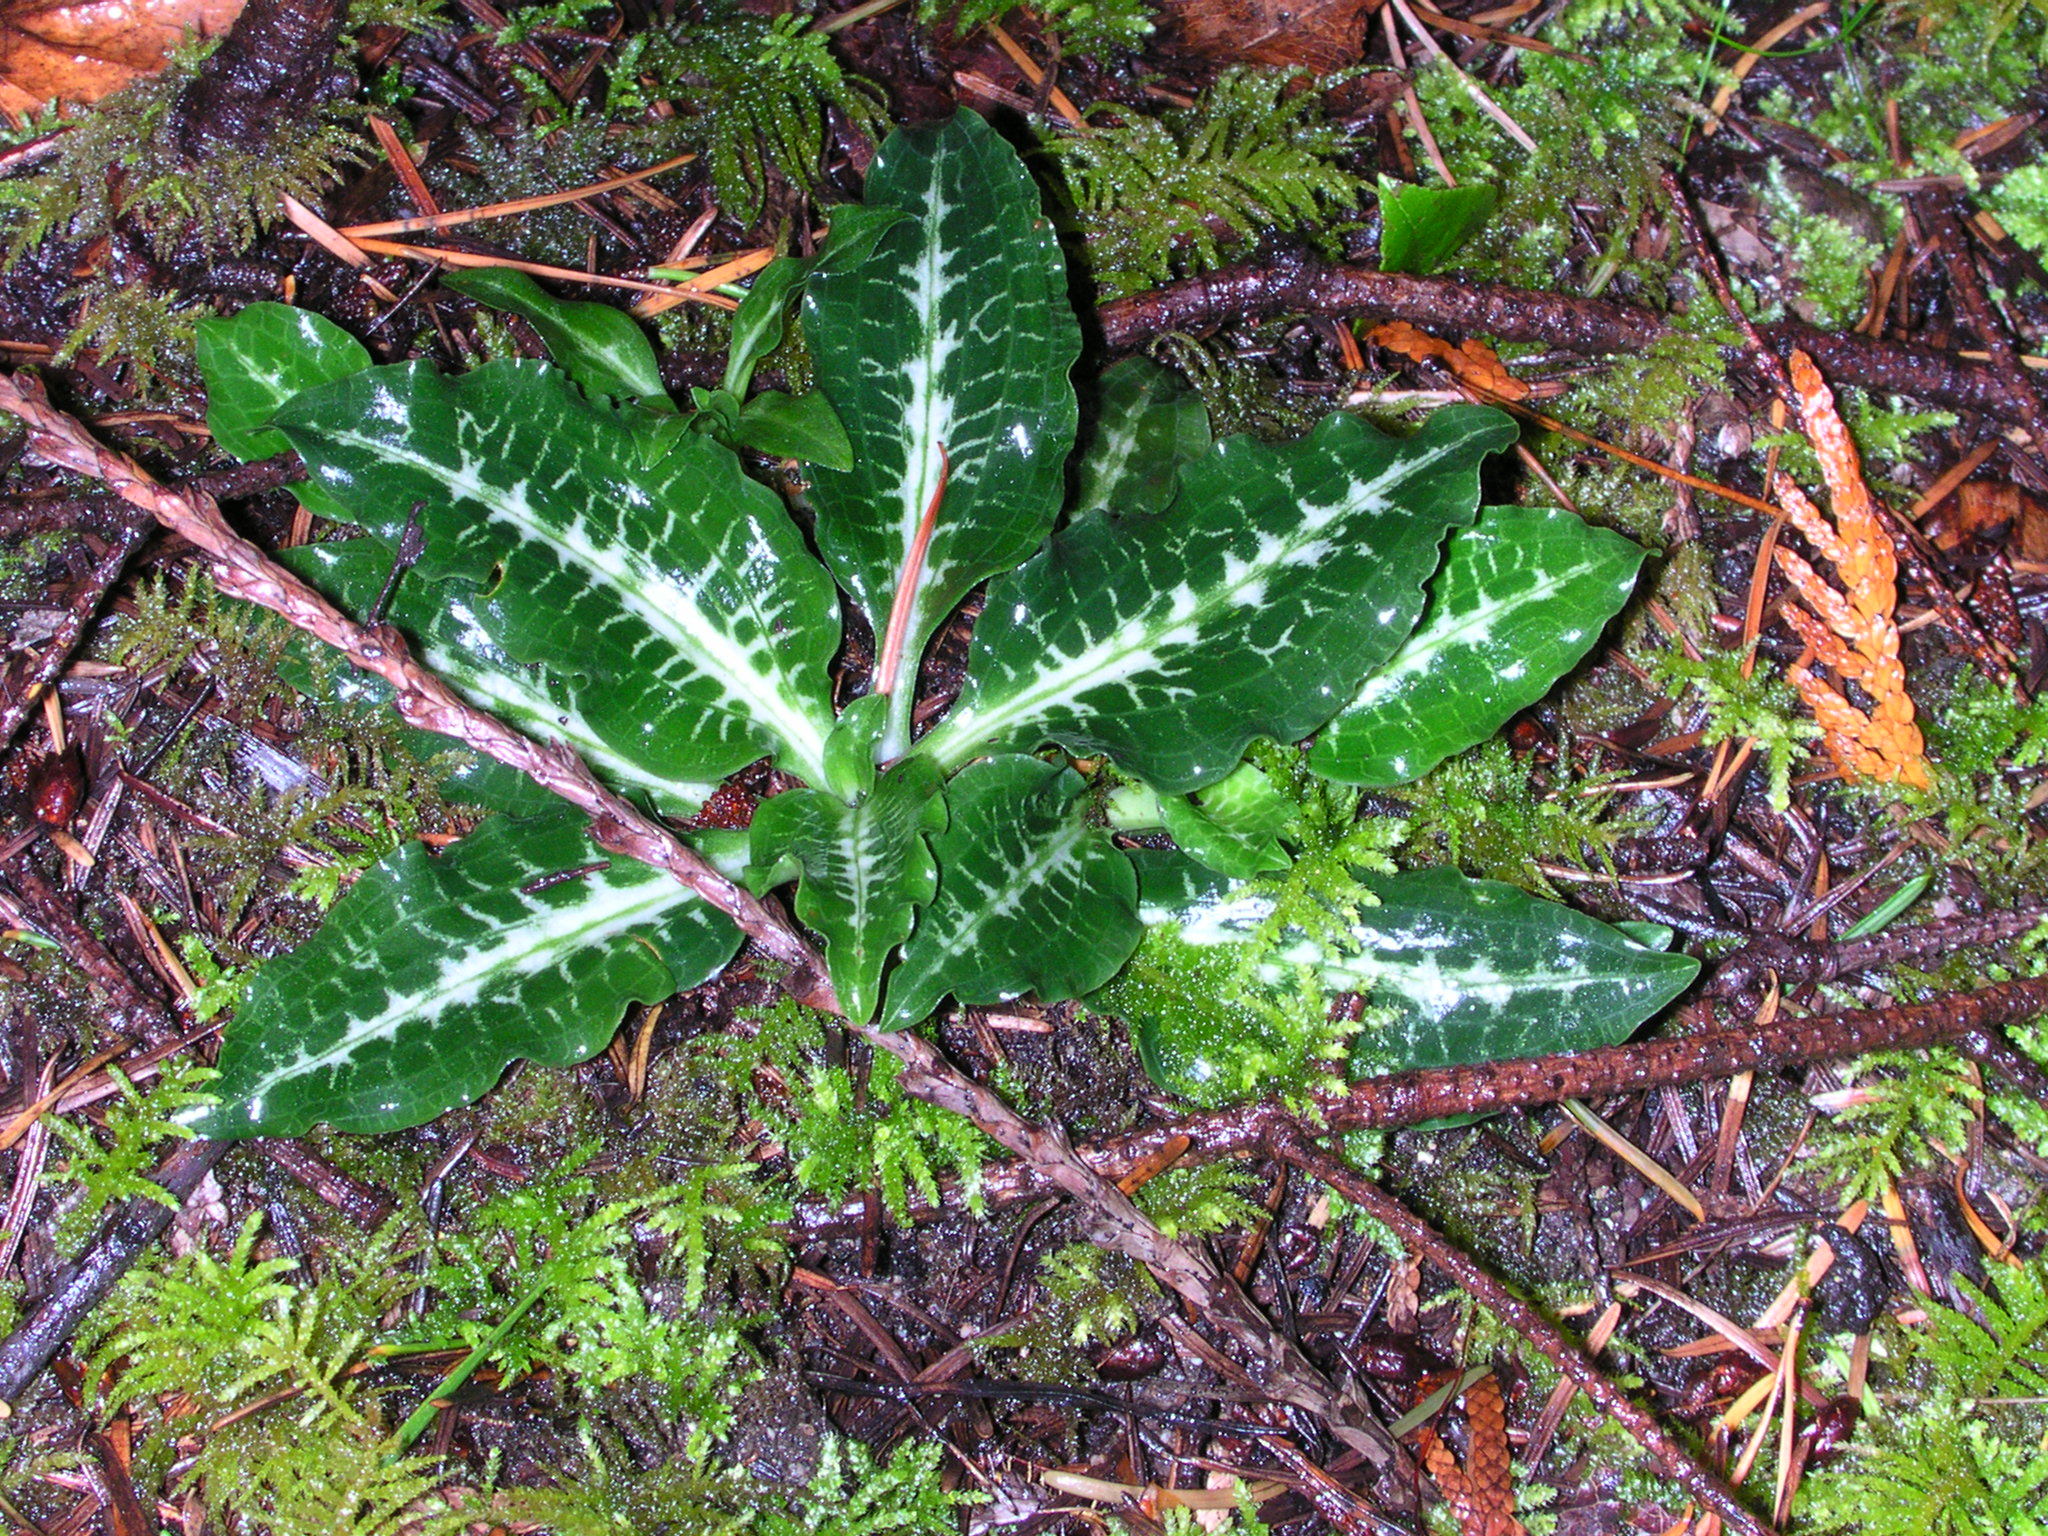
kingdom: Plantae
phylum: Tracheophyta
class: Liliopsida
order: Asparagales
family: Orchidaceae
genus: Goodyera
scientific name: Goodyera oblongifolia
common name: Giant rattlesnake-plantain
